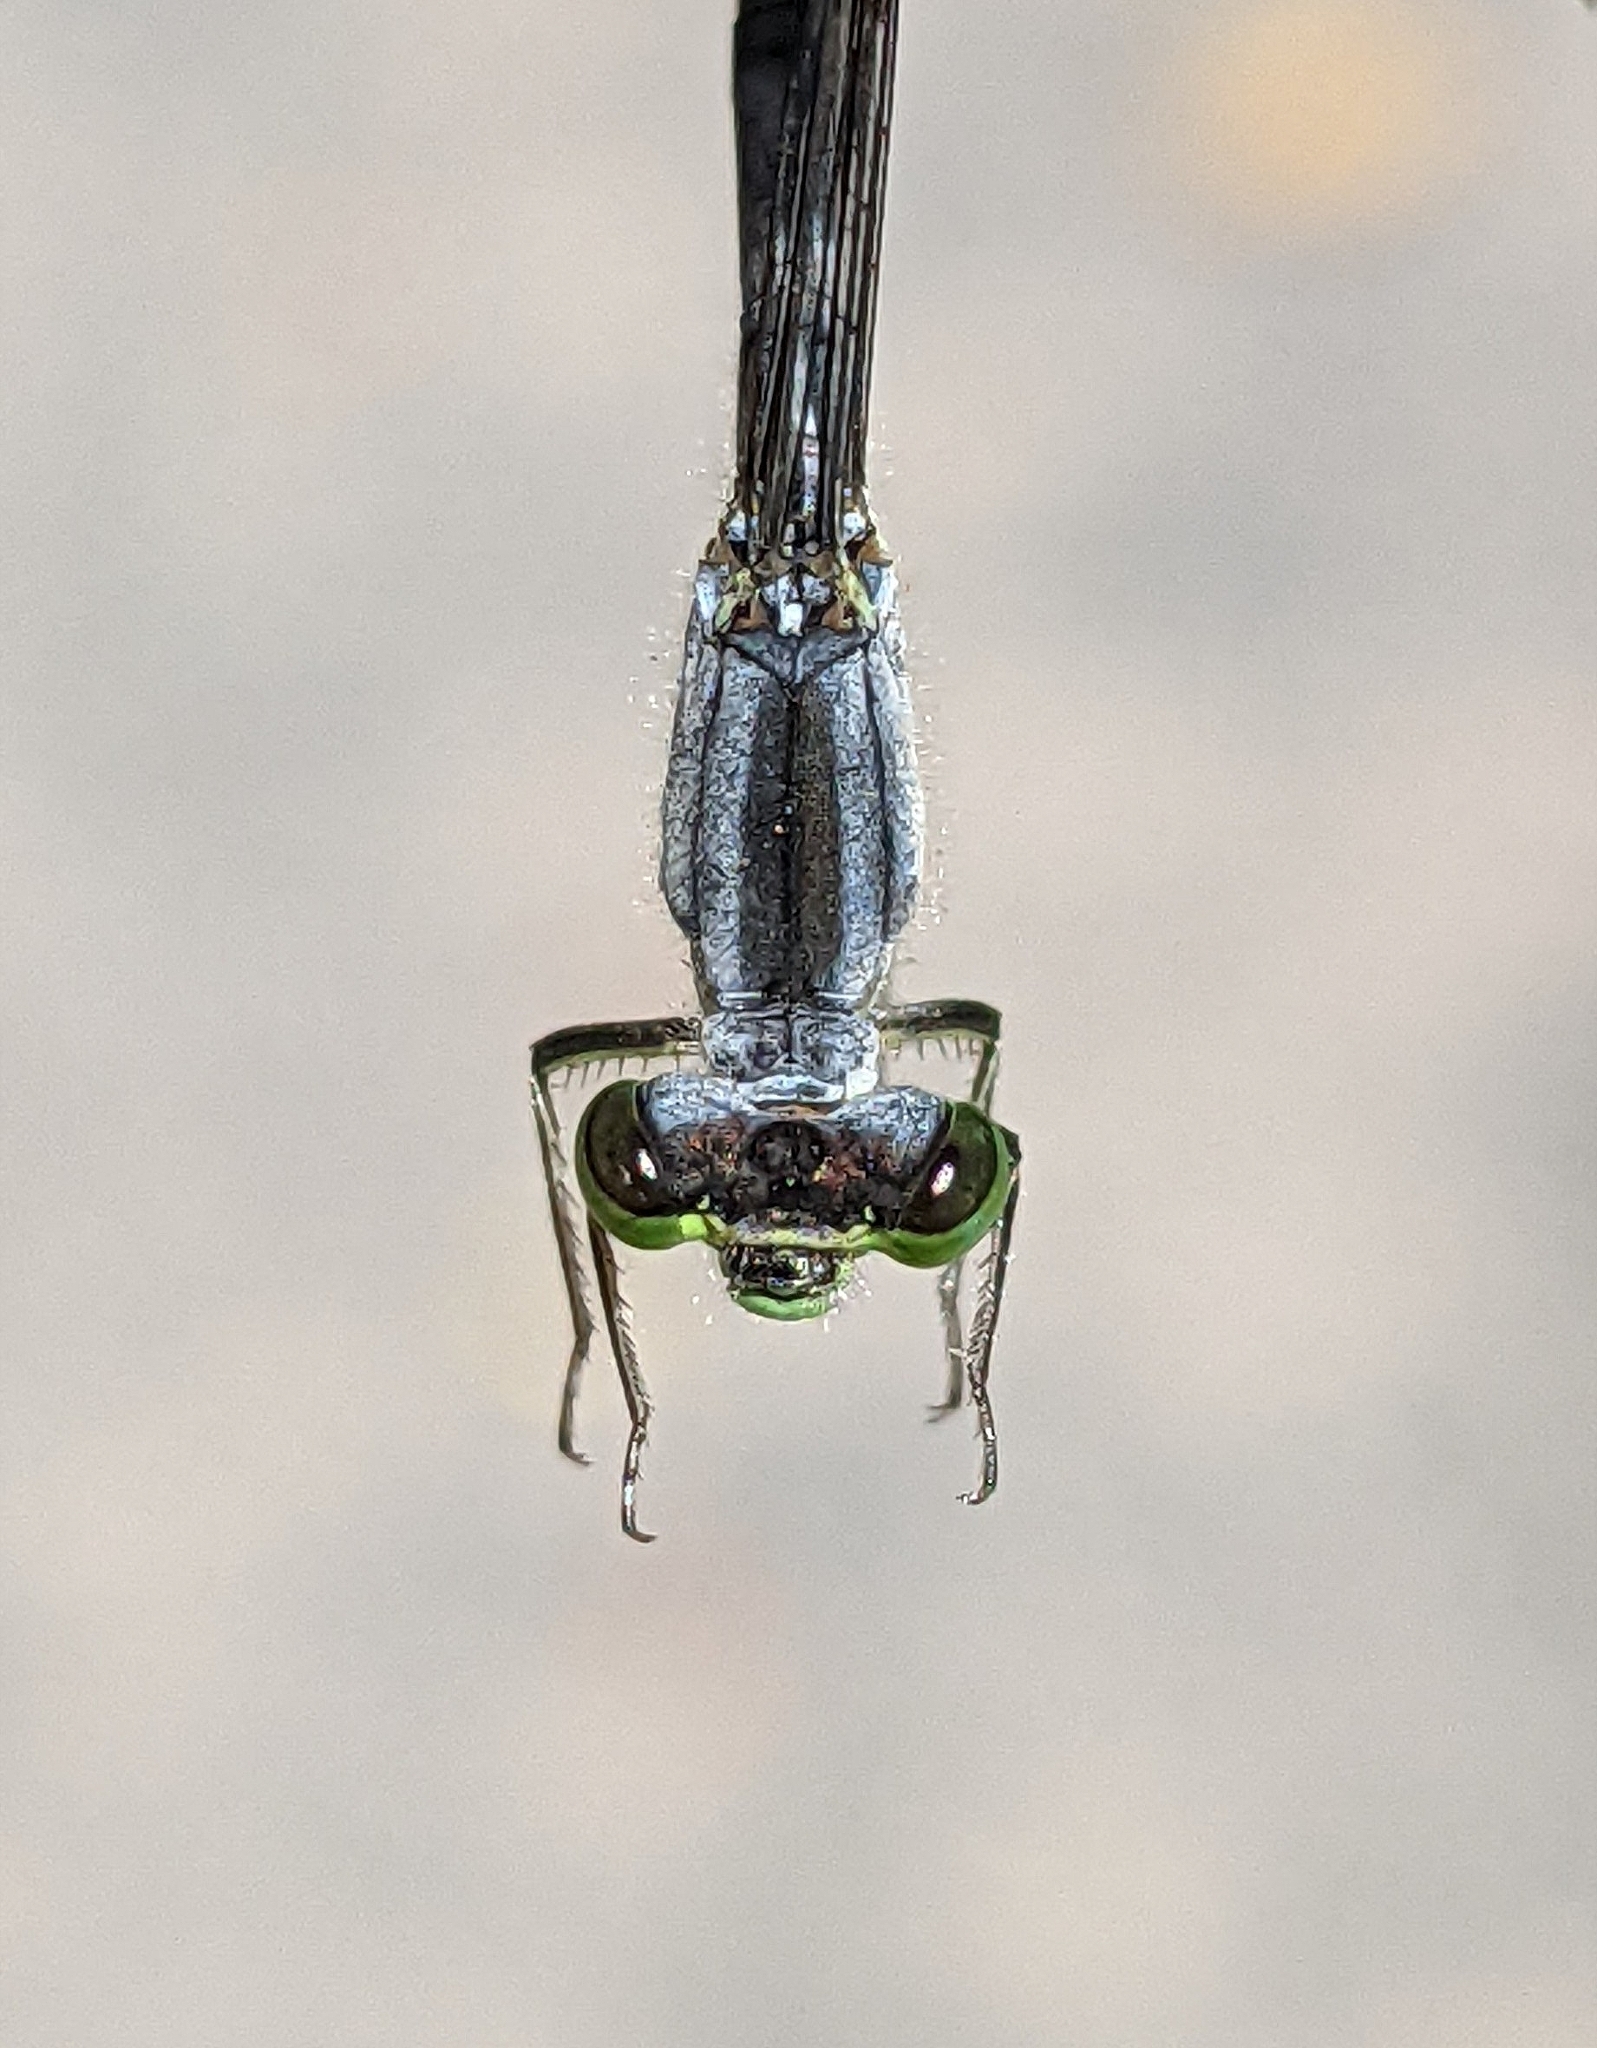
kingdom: Animalia
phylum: Arthropoda
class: Insecta
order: Odonata
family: Coenagrionidae
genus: Ischnura
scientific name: Ischnura verticalis
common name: Eastern forktail
